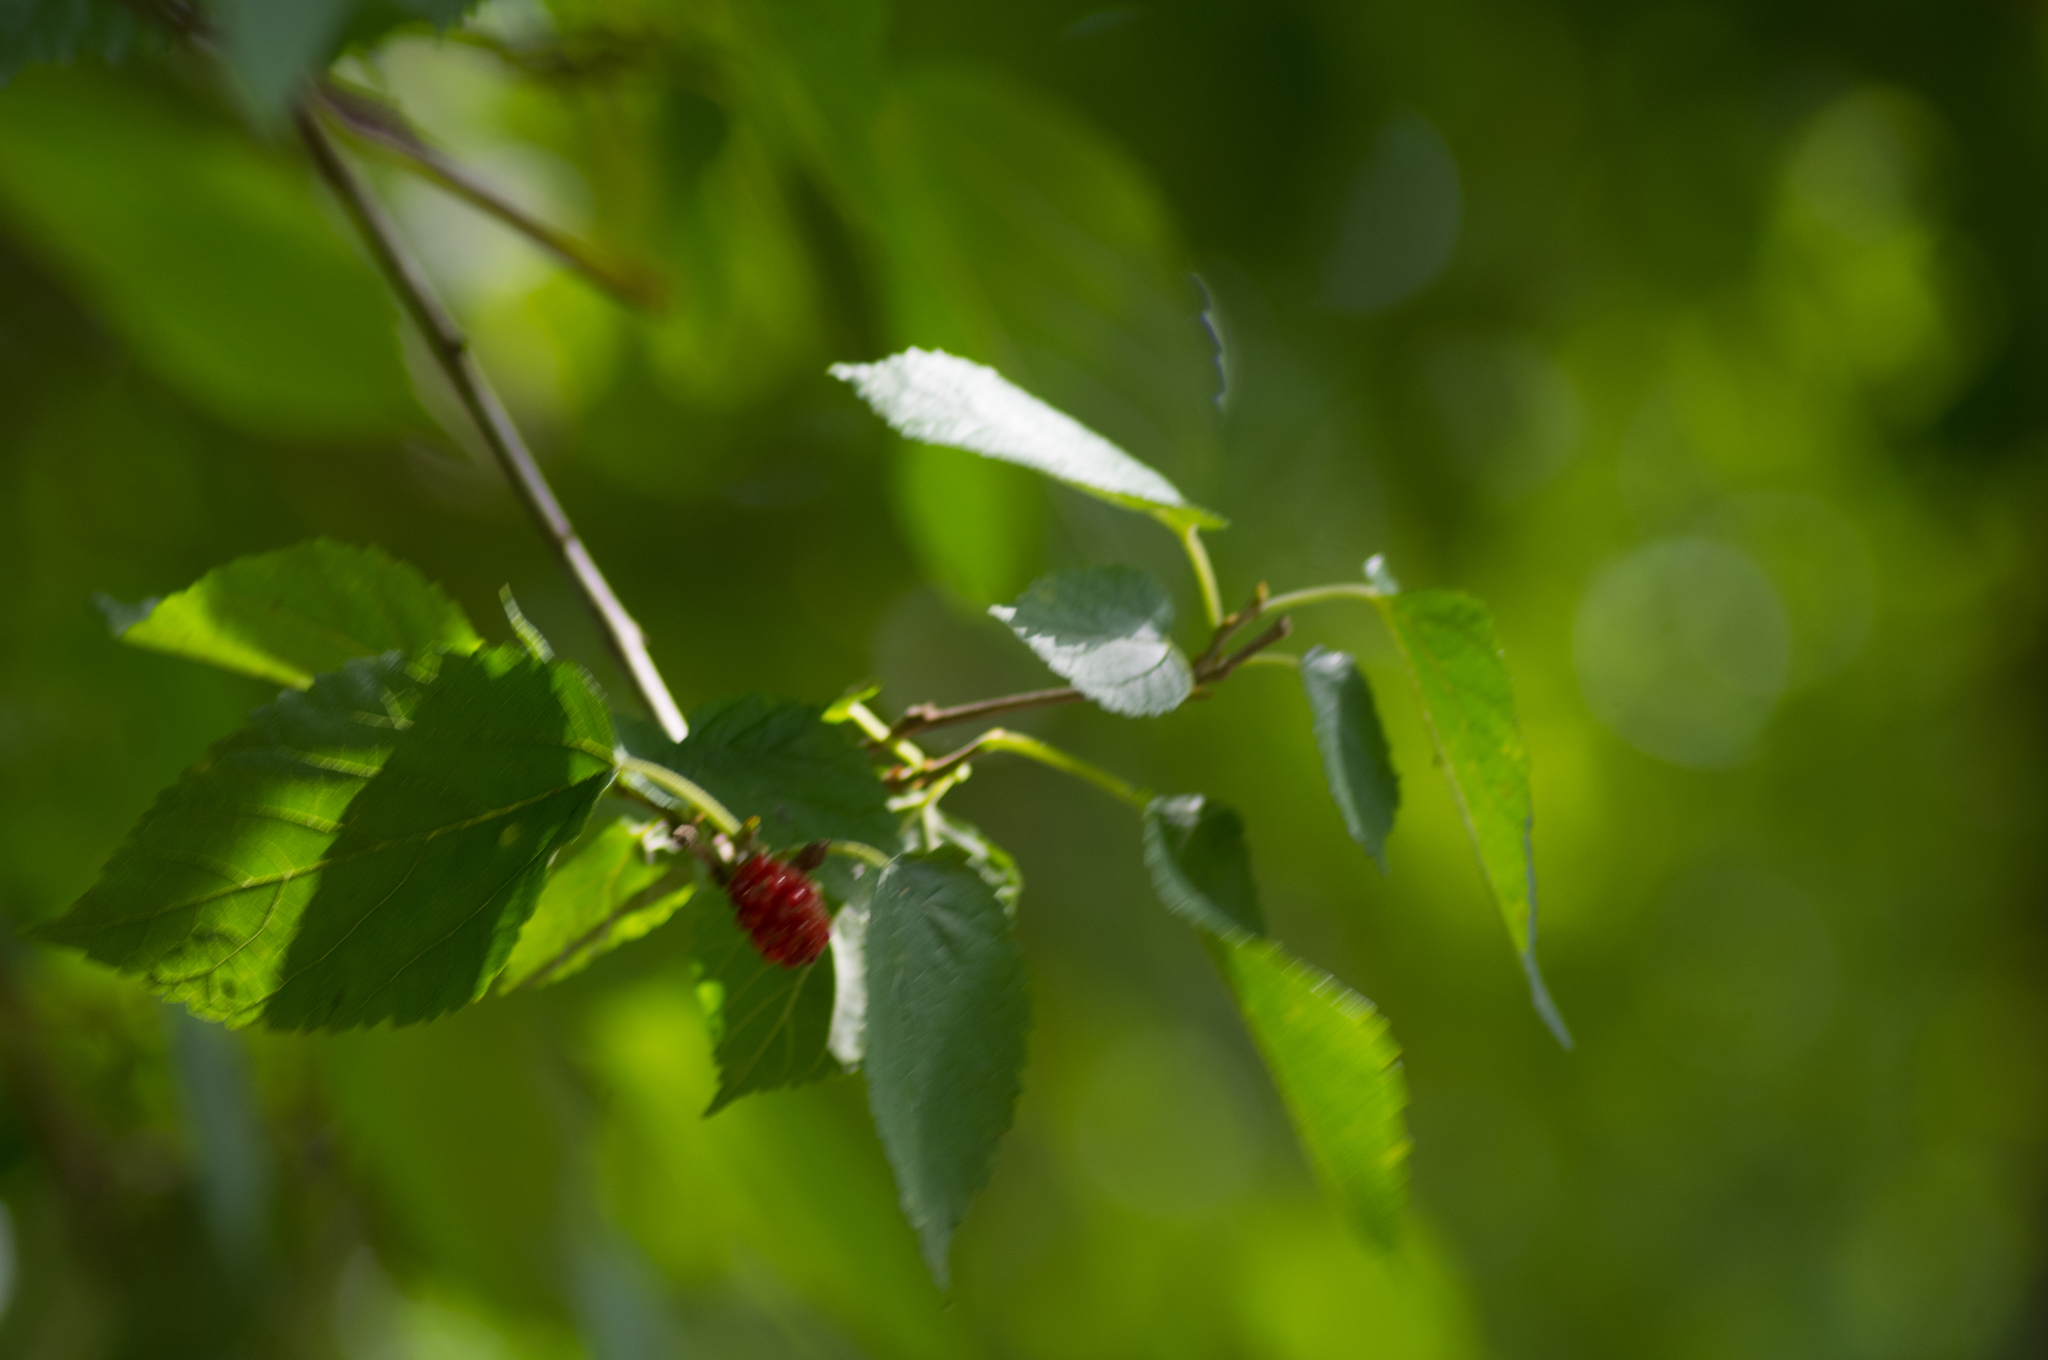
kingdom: Plantae
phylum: Tracheophyta
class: Magnoliopsida
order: Rosales
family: Moraceae
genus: Morus
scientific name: Morus rubra
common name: Red mulberry
